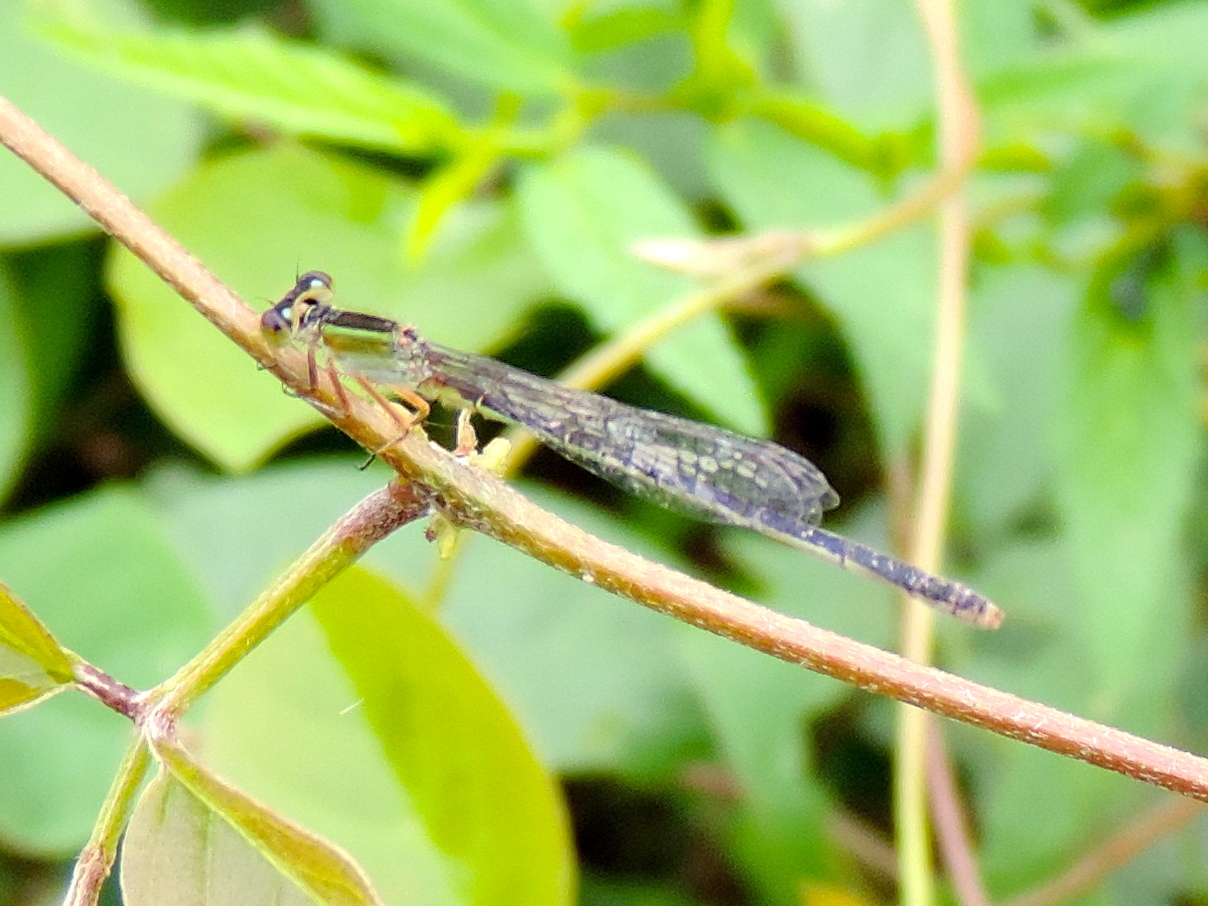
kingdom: Animalia
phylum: Arthropoda
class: Insecta
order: Odonata
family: Coenagrionidae
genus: Ischnura
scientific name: Ischnura
